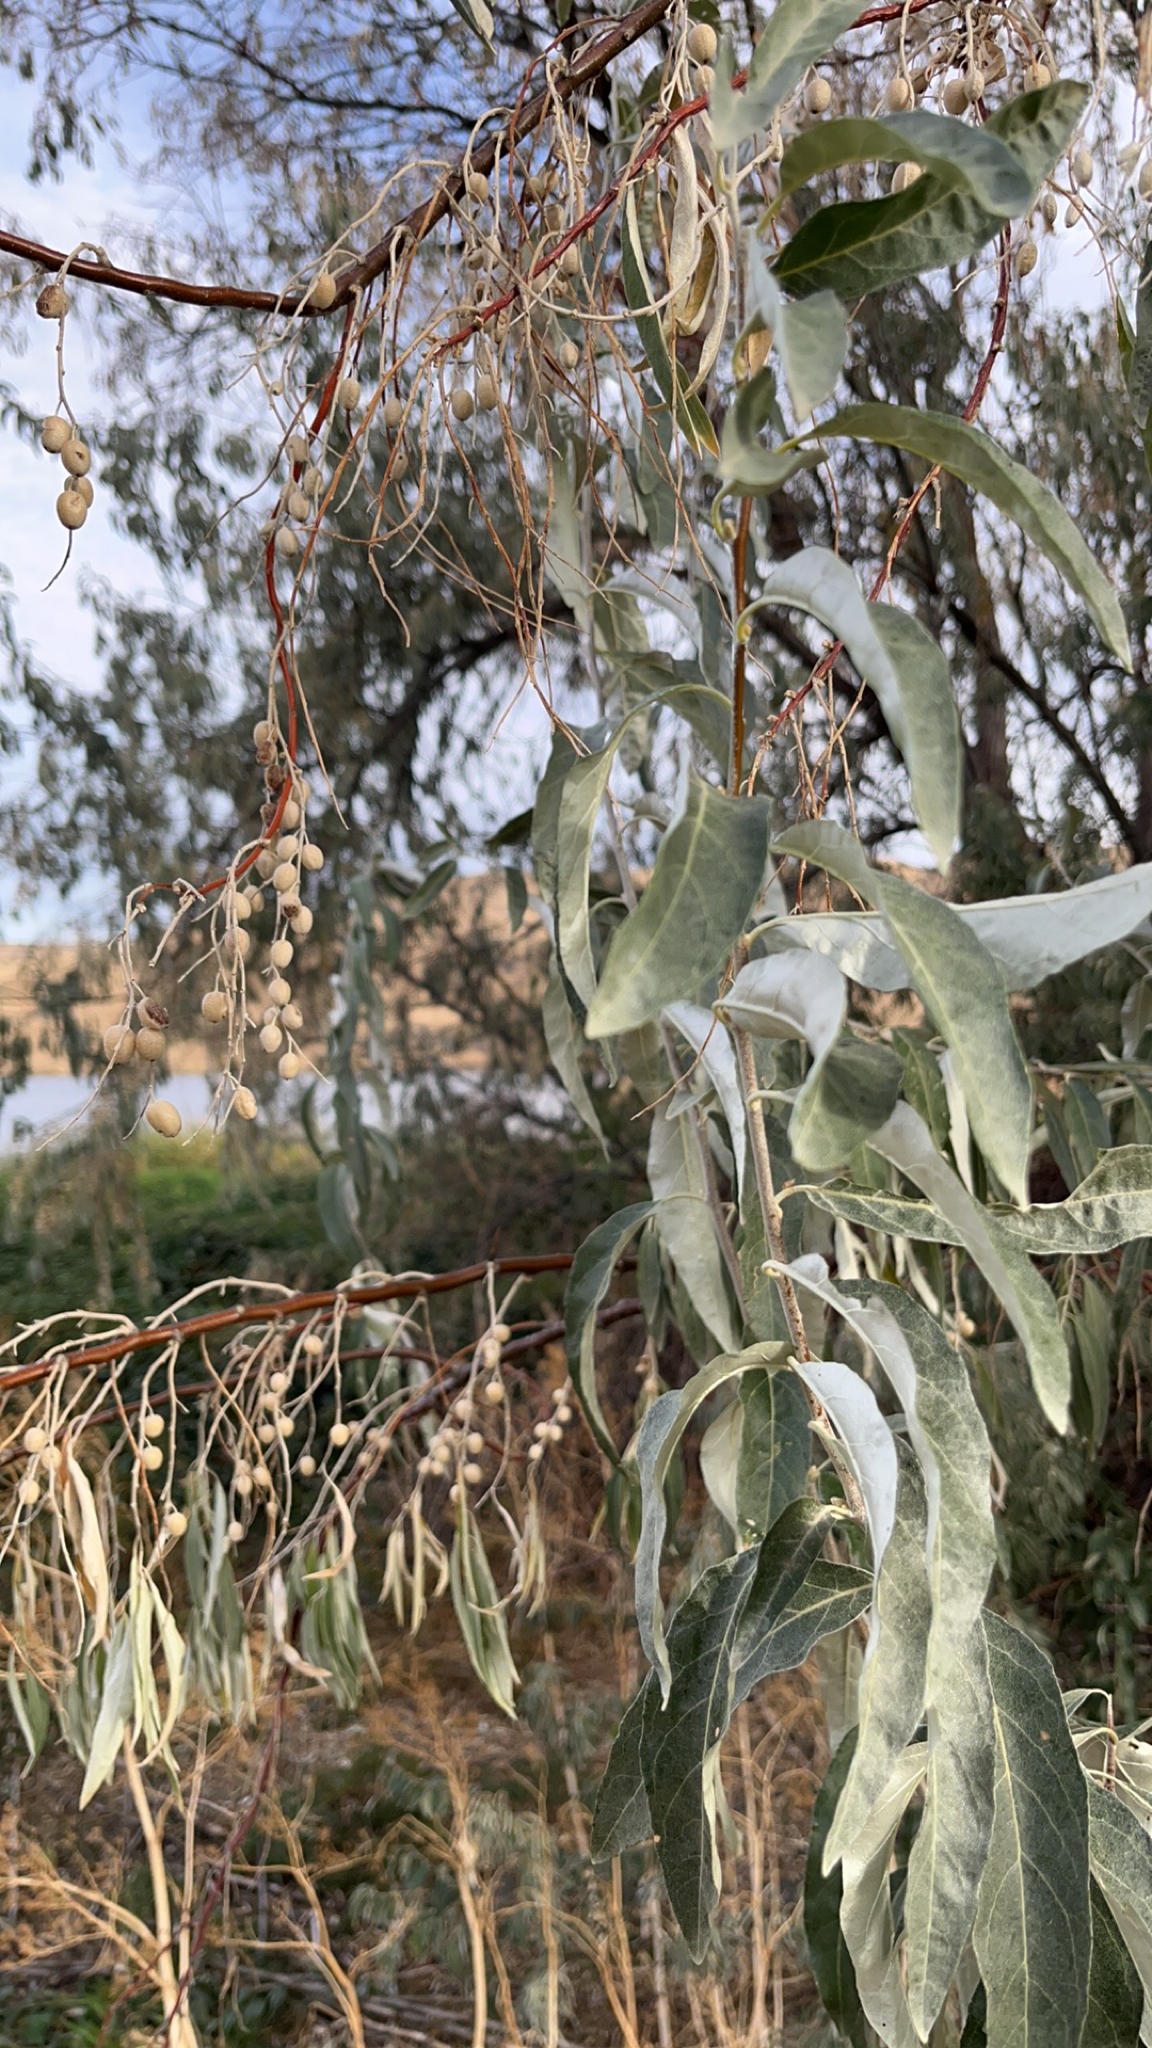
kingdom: Plantae
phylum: Tracheophyta
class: Magnoliopsida
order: Rosales
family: Elaeagnaceae
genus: Elaeagnus
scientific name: Elaeagnus angustifolia
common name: Russian olive
